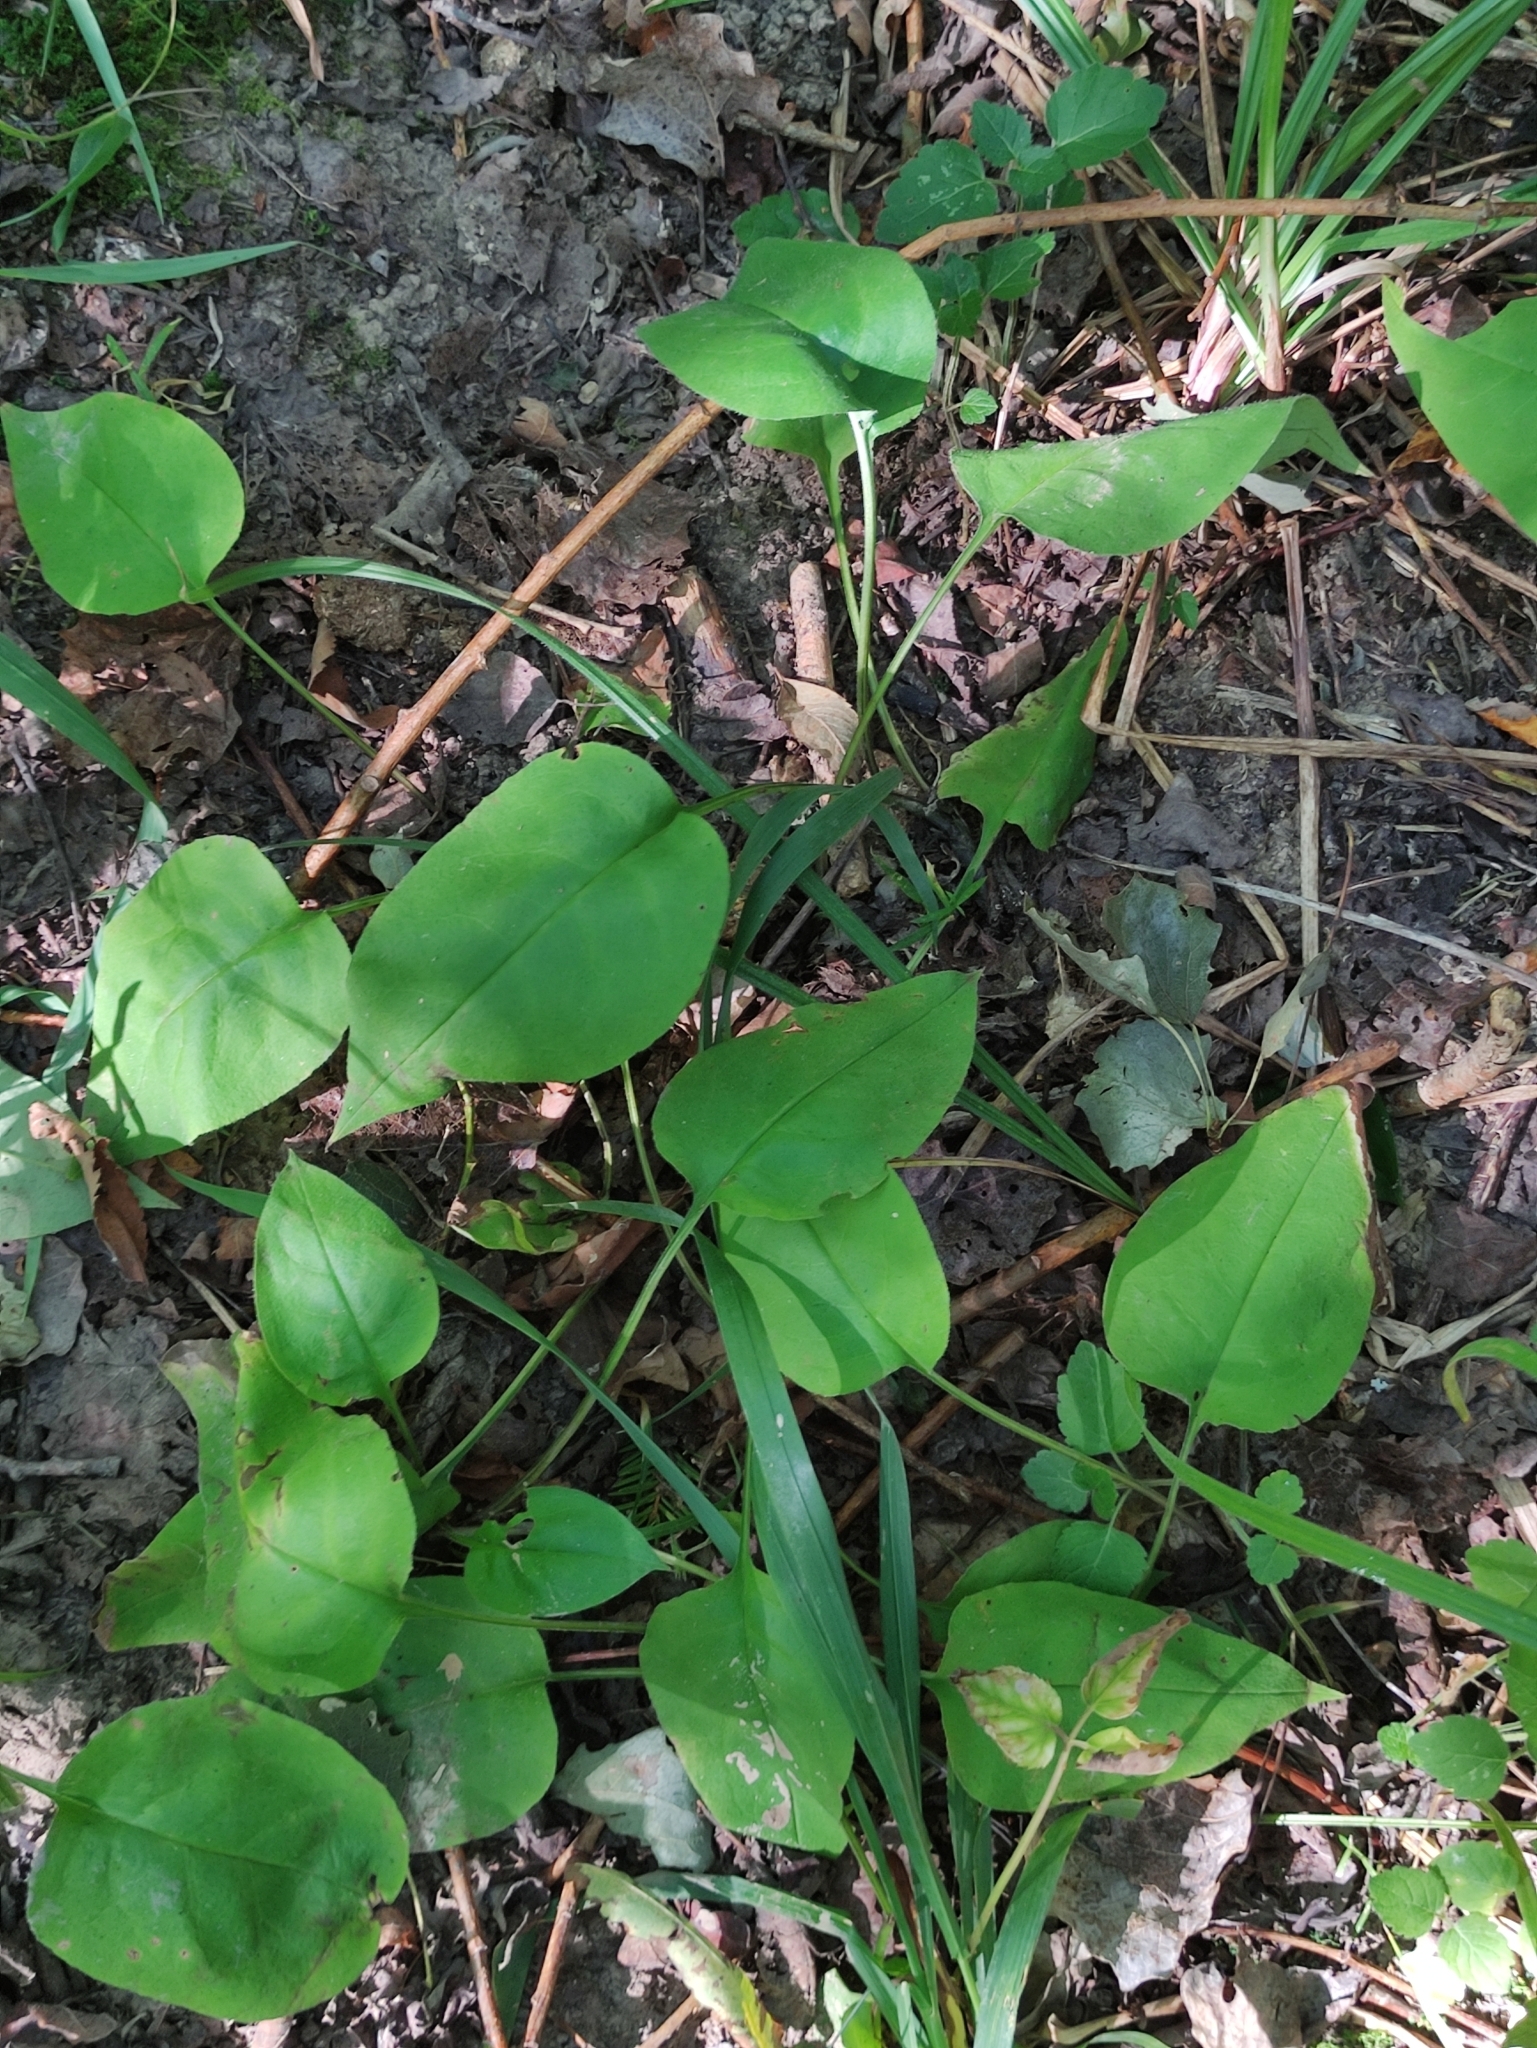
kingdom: Plantae
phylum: Tracheophyta
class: Magnoliopsida
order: Boraginales
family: Boraginaceae
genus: Pulmonaria
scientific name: Pulmonaria obscura
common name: Suffolk lungwort
